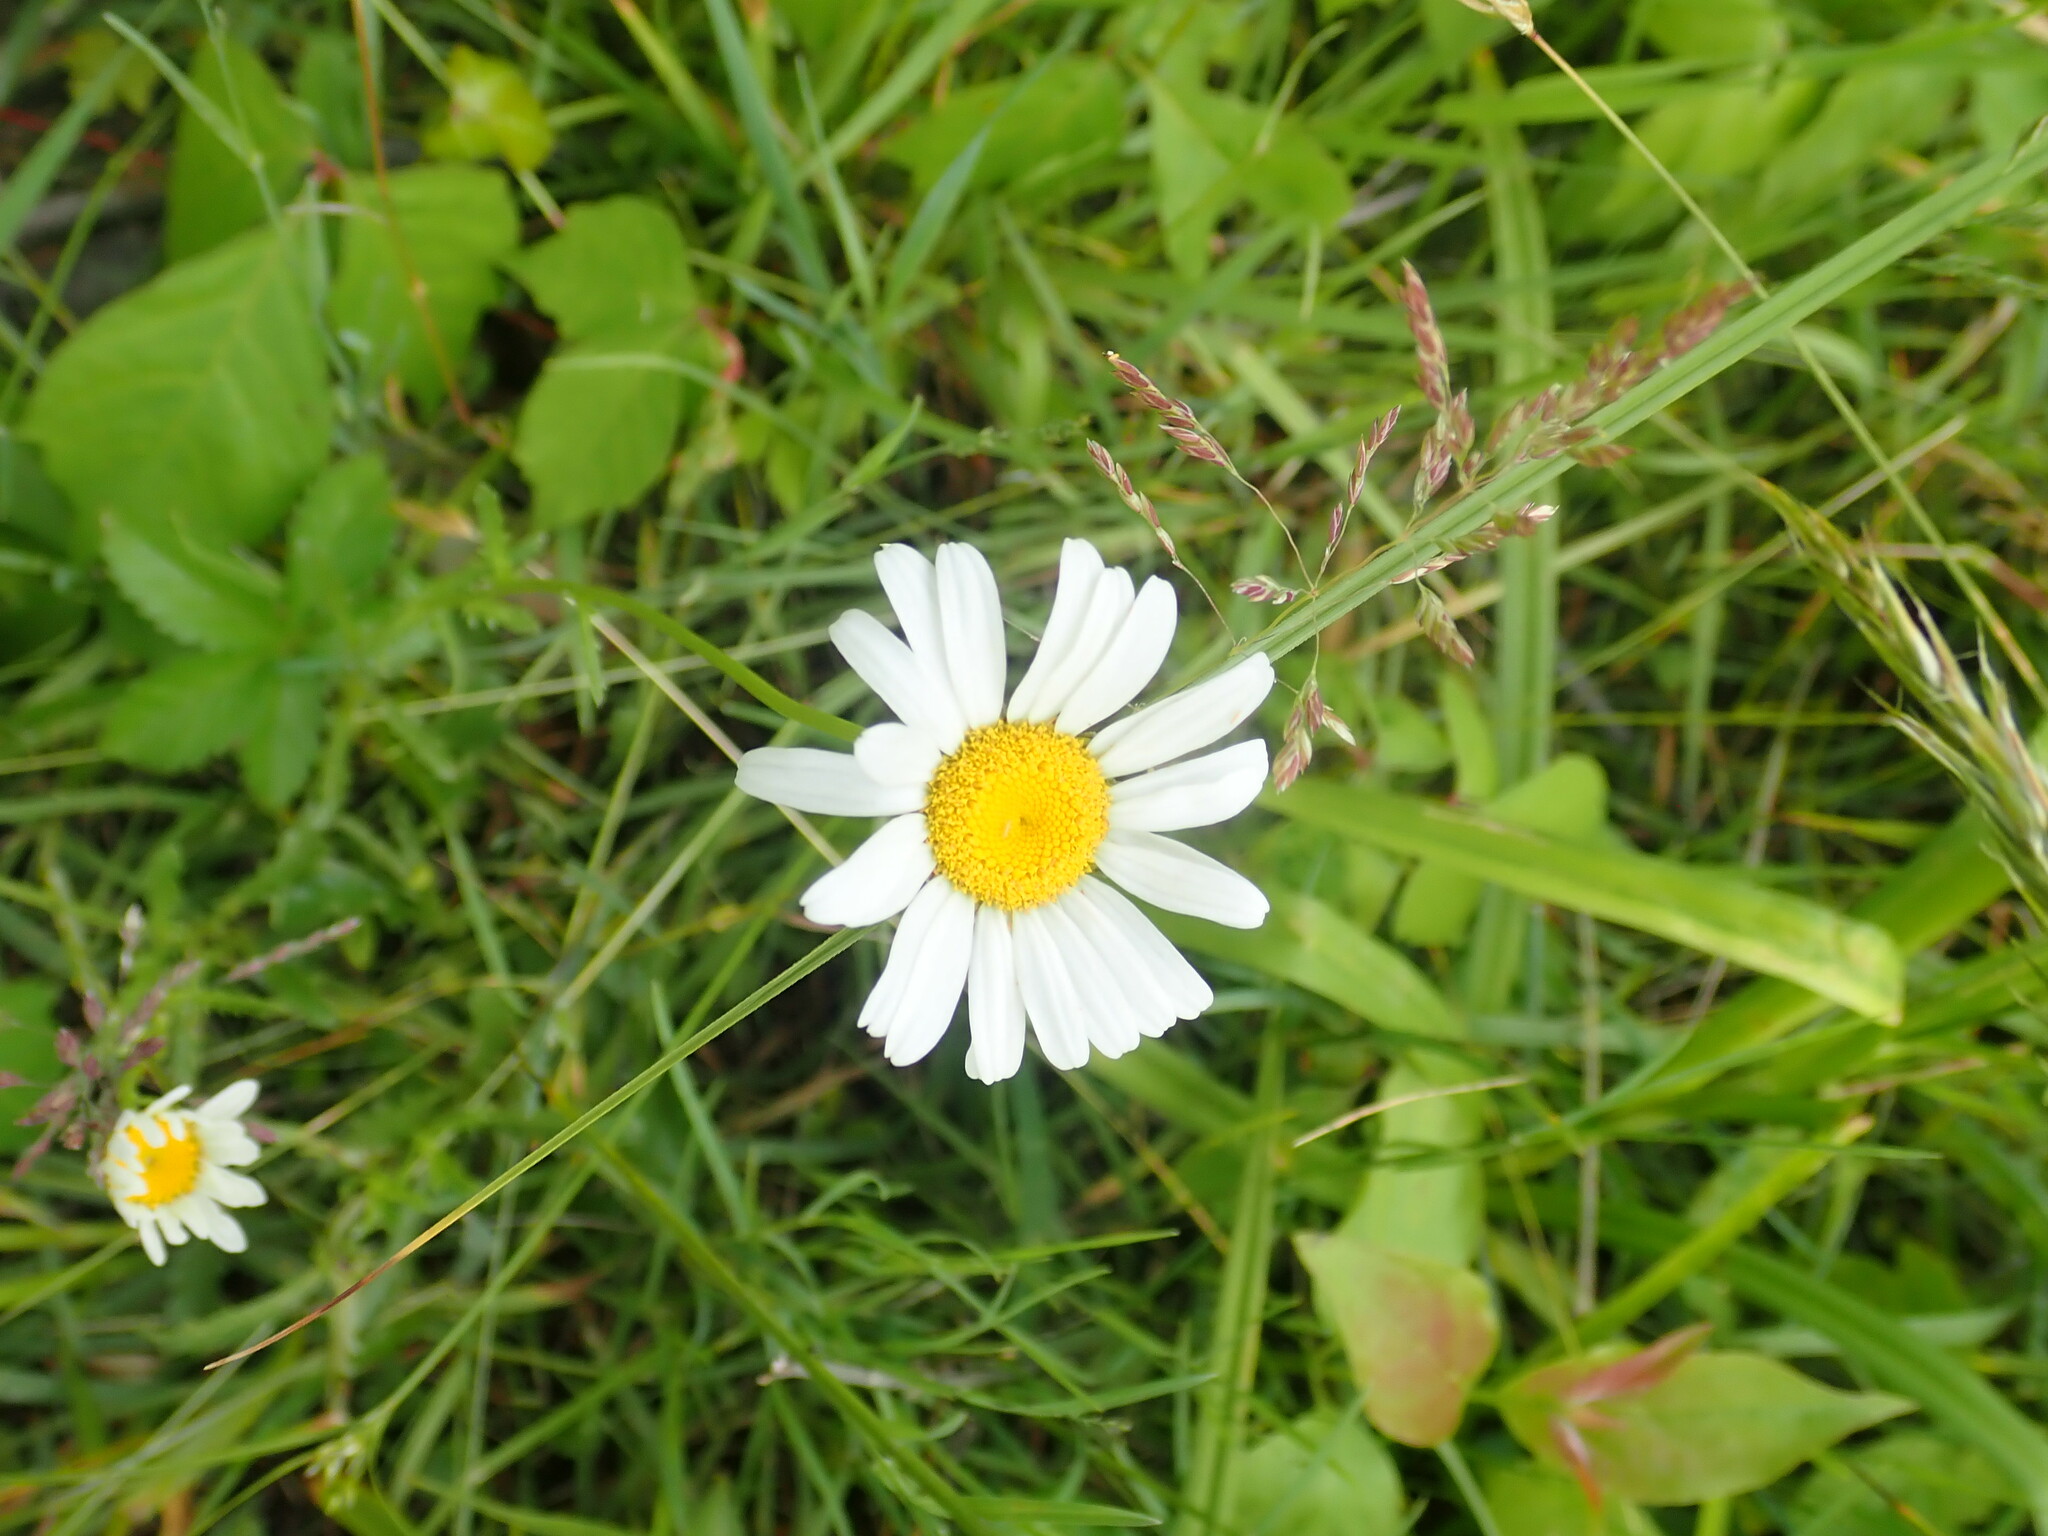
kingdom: Plantae
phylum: Tracheophyta
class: Magnoliopsida
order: Asterales
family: Asteraceae
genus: Leucanthemum
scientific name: Leucanthemum vulgare
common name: Oxeye daisy
